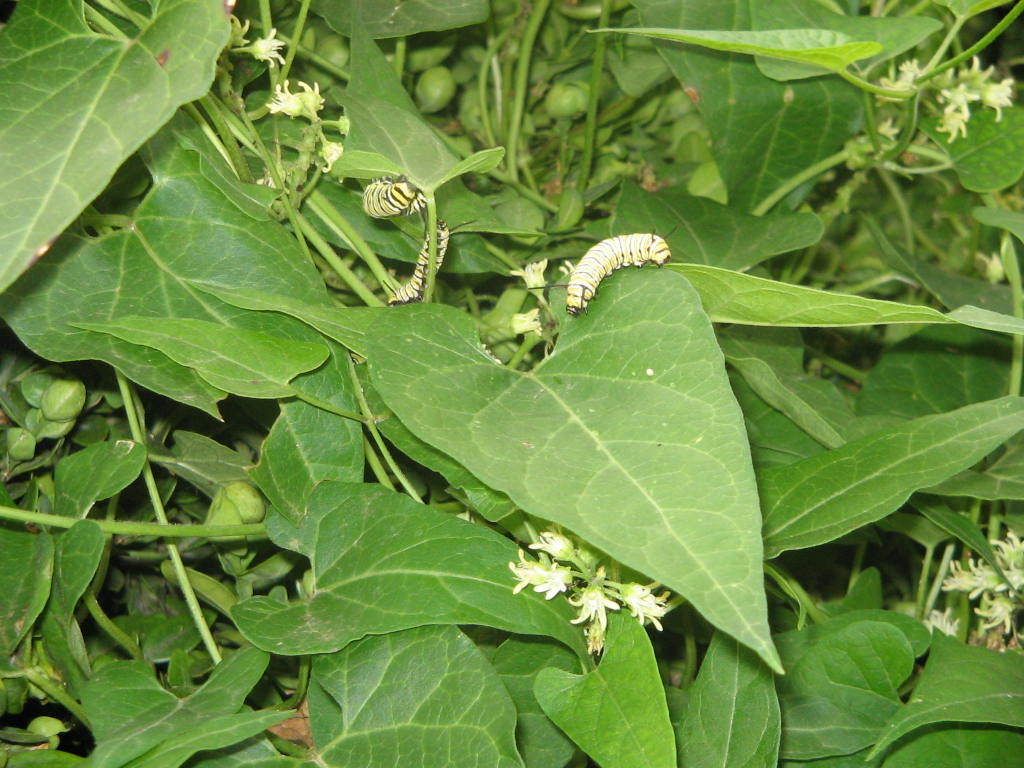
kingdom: Animalia
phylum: Arthropoda
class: Insecta
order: Lepidoptera
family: Nymphalidae
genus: Danaus
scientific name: Danaus plexippus
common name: Monarch
